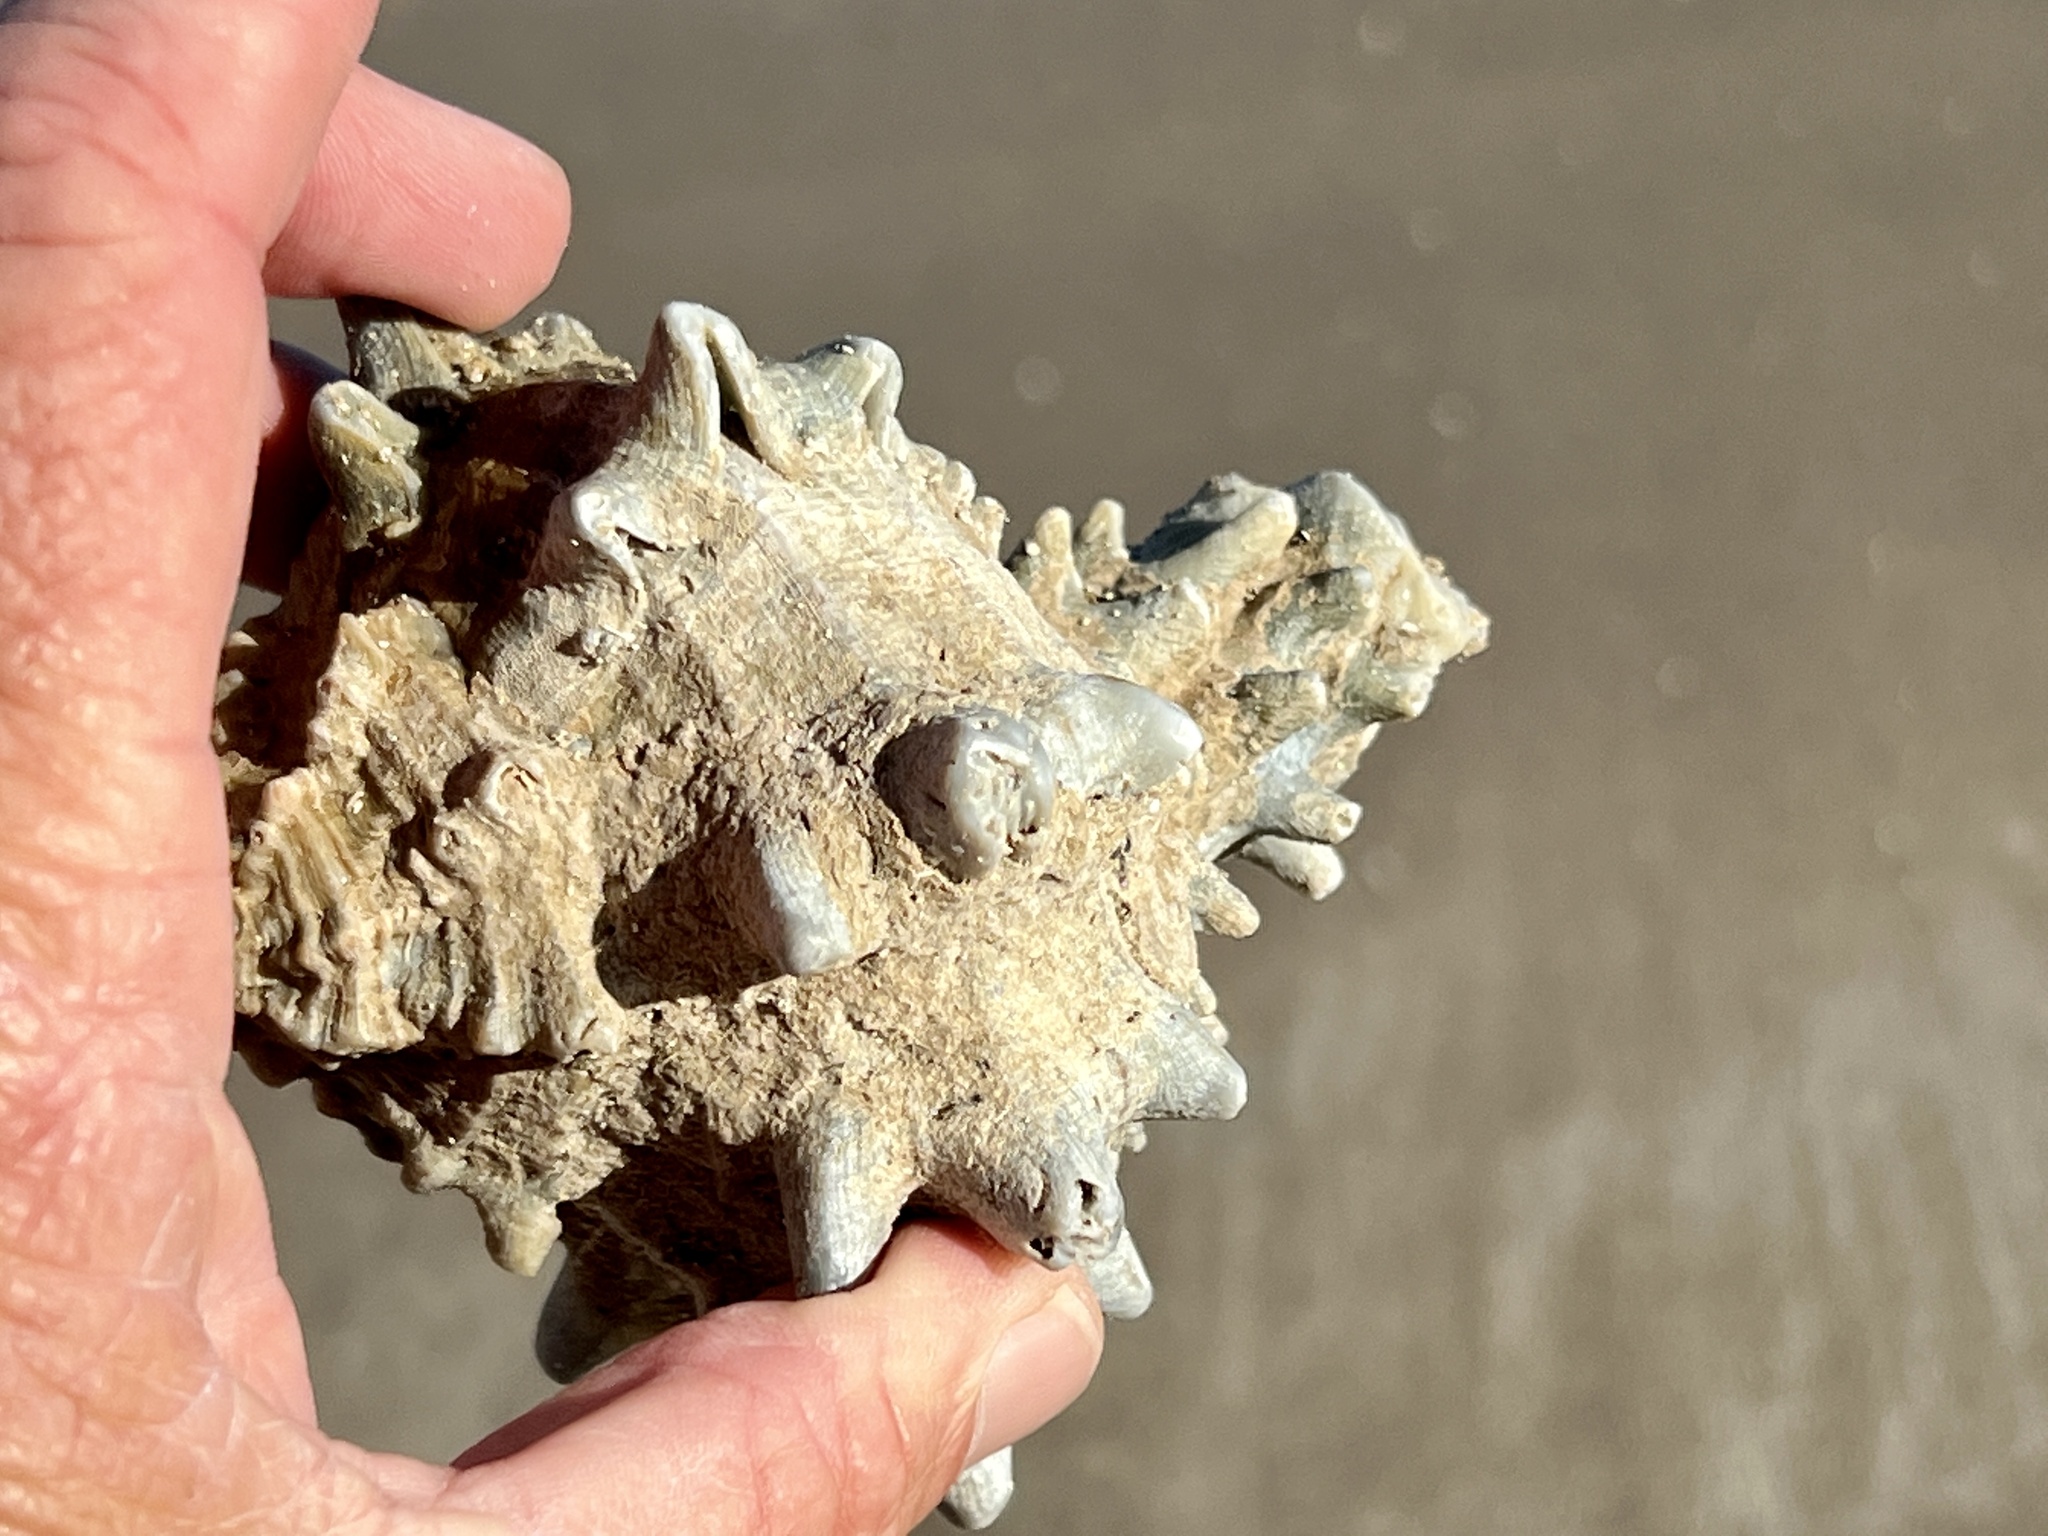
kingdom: Animalia
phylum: Mollusca
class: Gastropoda
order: Neogastropoda
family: Muricidae
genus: Hexaplex
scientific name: Hexaplex fulvescens
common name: Tawny murex
